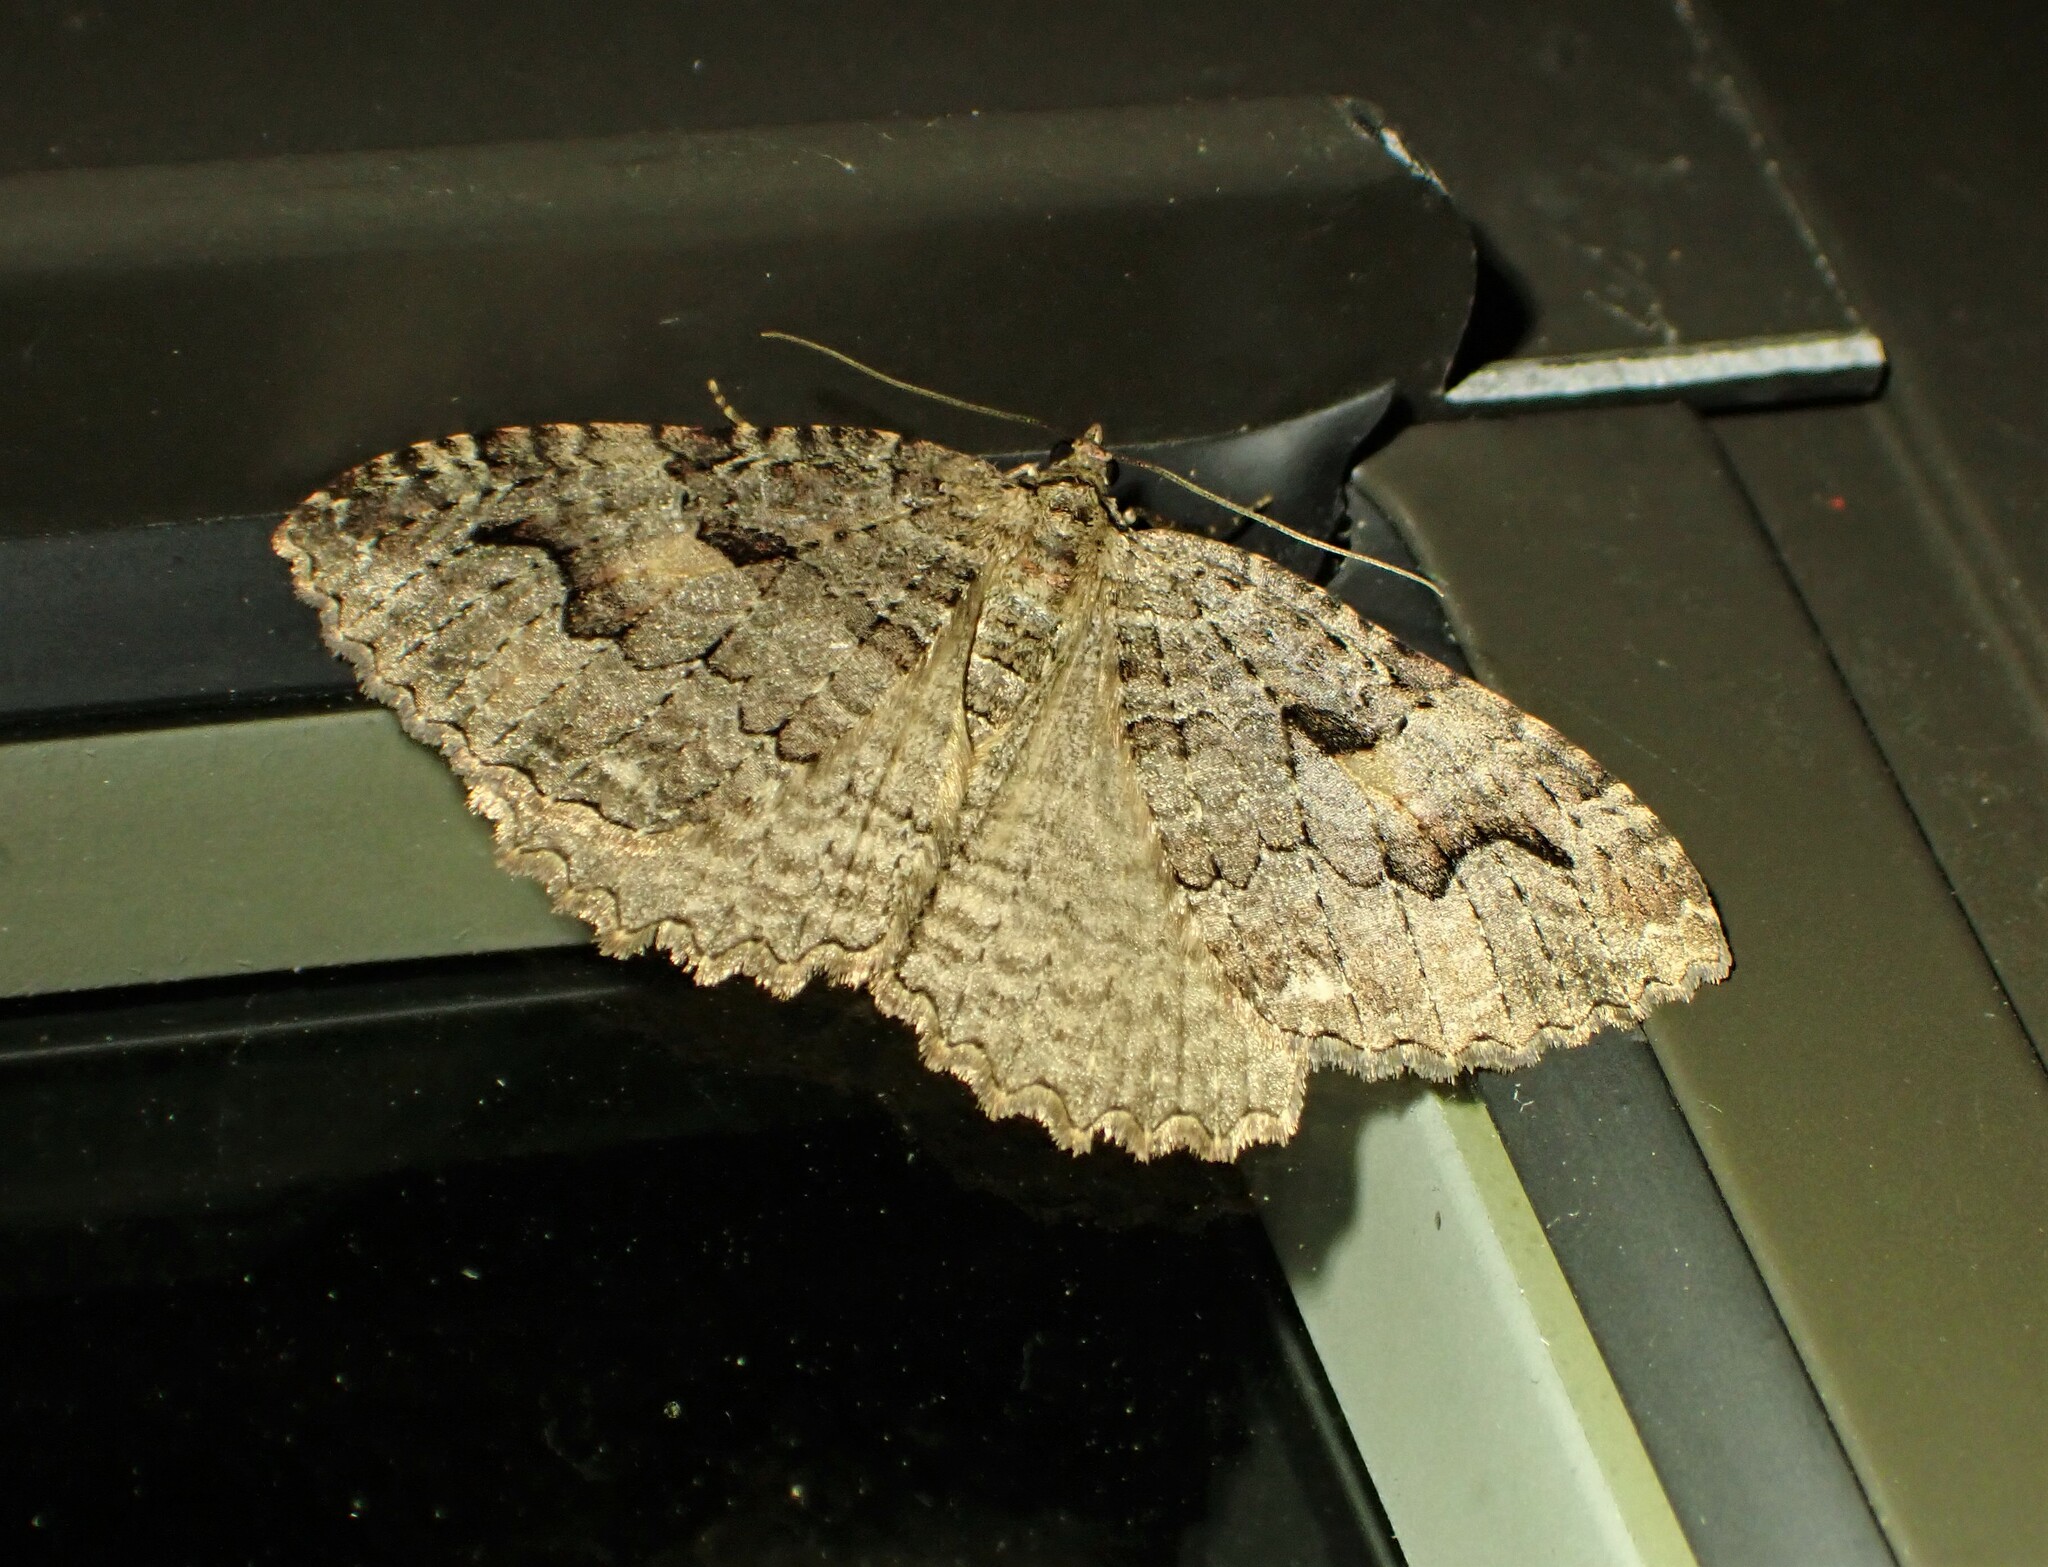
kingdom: Animalia
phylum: Arthropoda
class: Insecta
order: Lepidoptera
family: Geometridae
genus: Triphosa
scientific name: Triphosa haesitata
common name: Tissue moth
